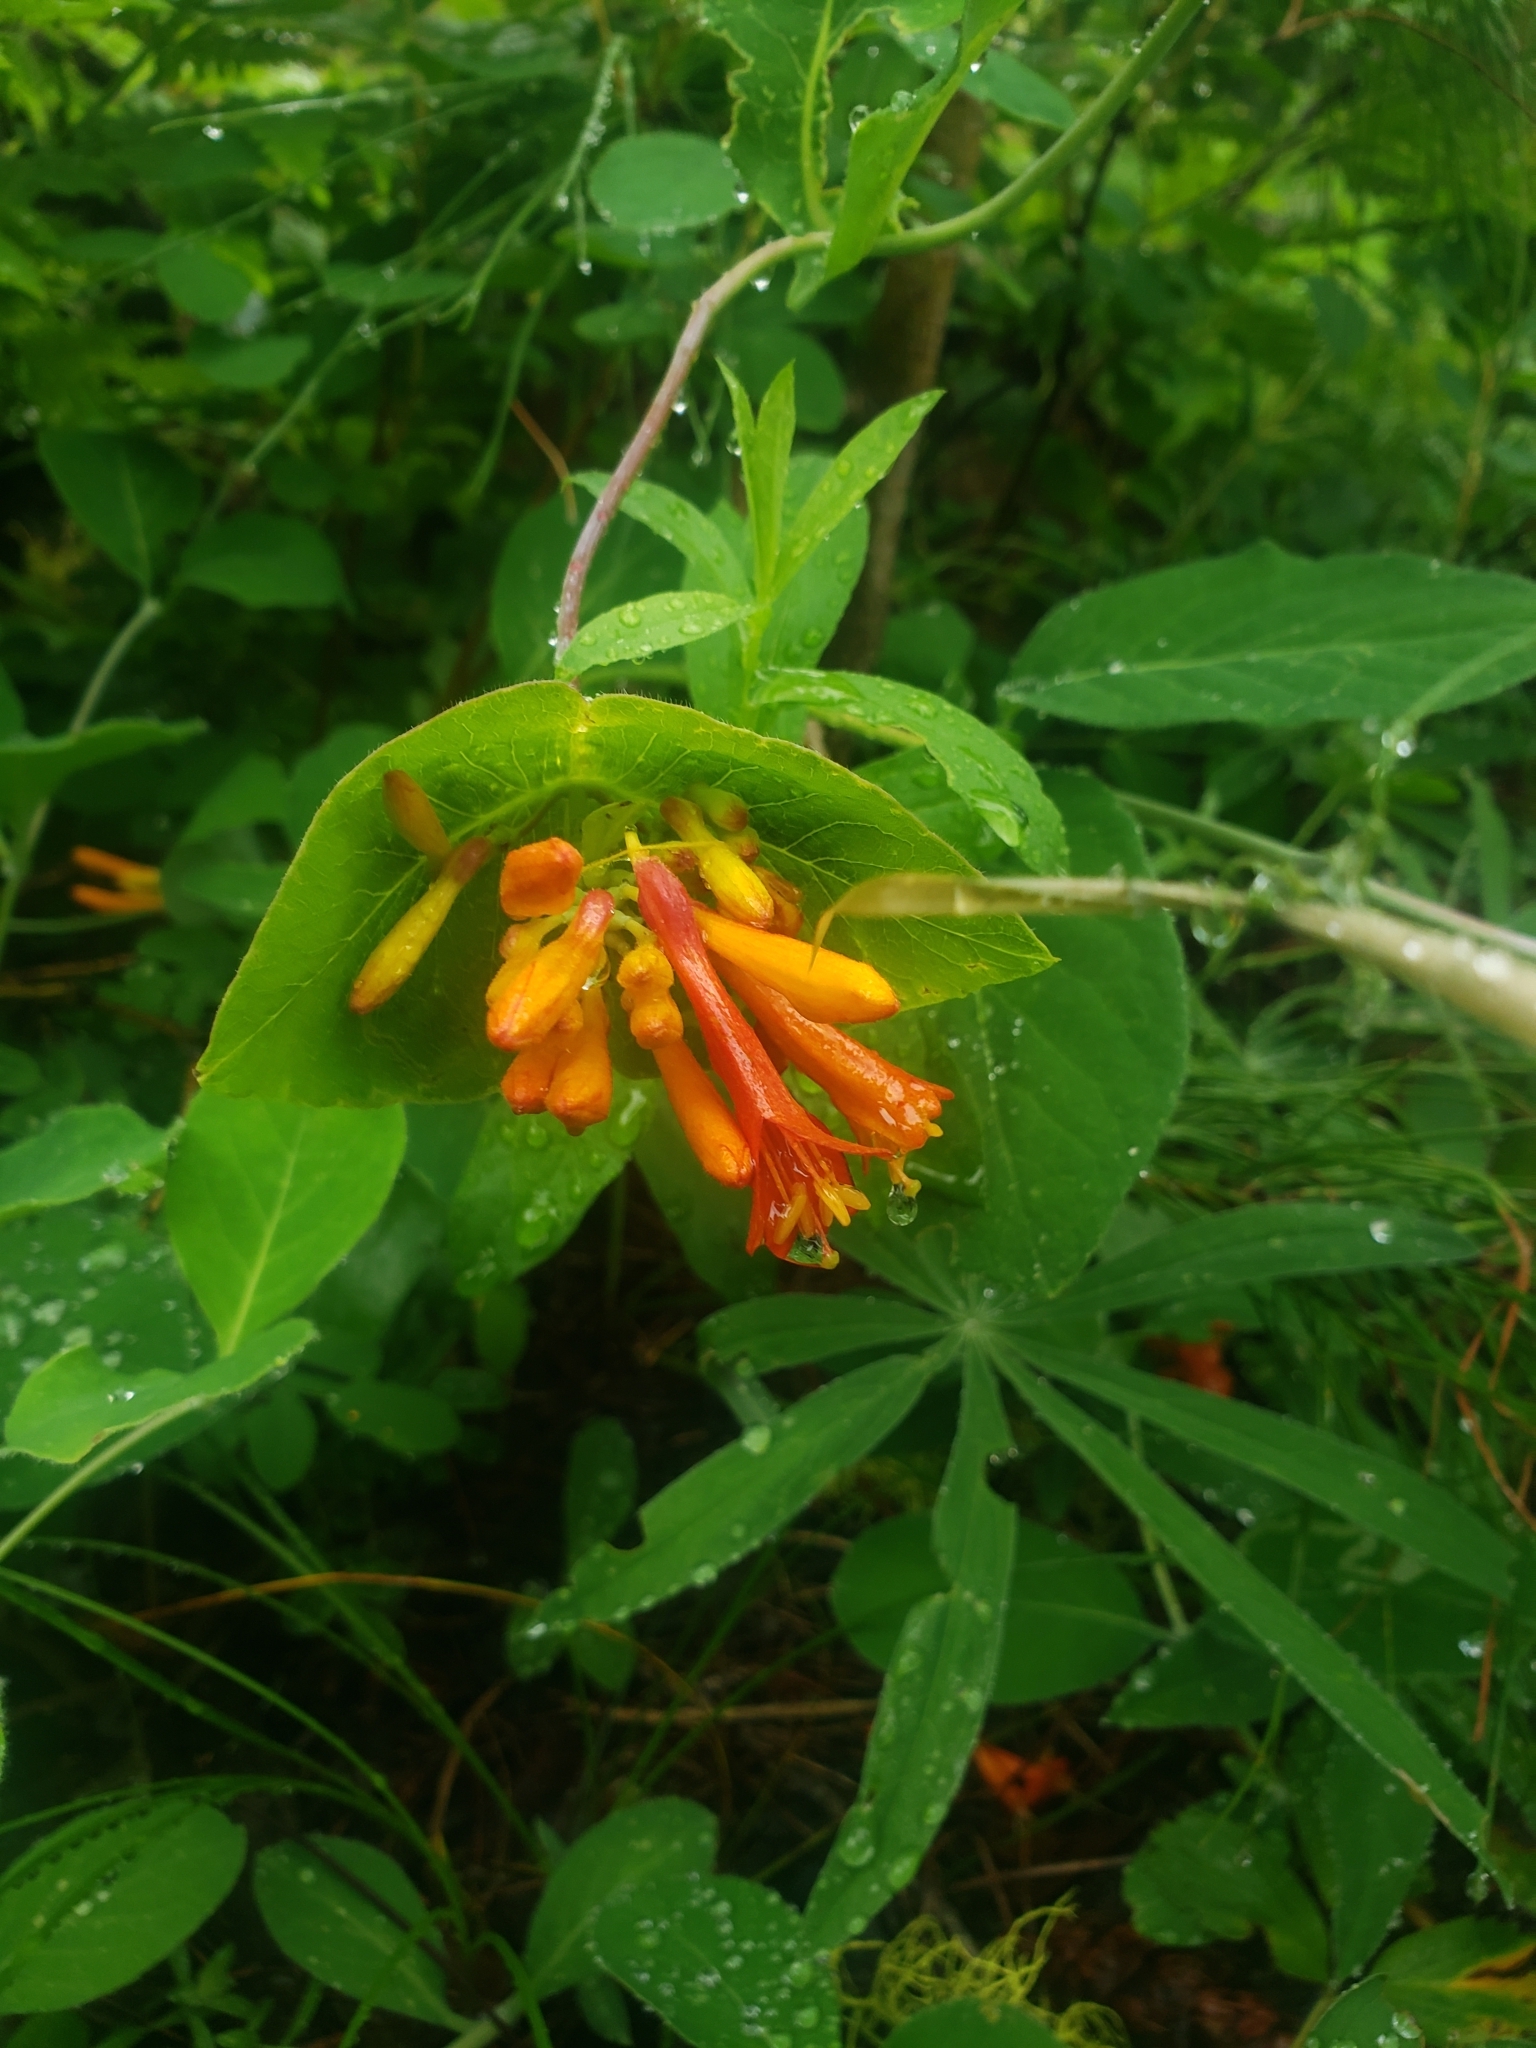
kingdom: Plantae
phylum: Tracheophyta
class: Magnoliopsida
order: Dipsacales
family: Caprifoliaceae
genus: Lonicera
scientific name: Lonicera ciliosa
